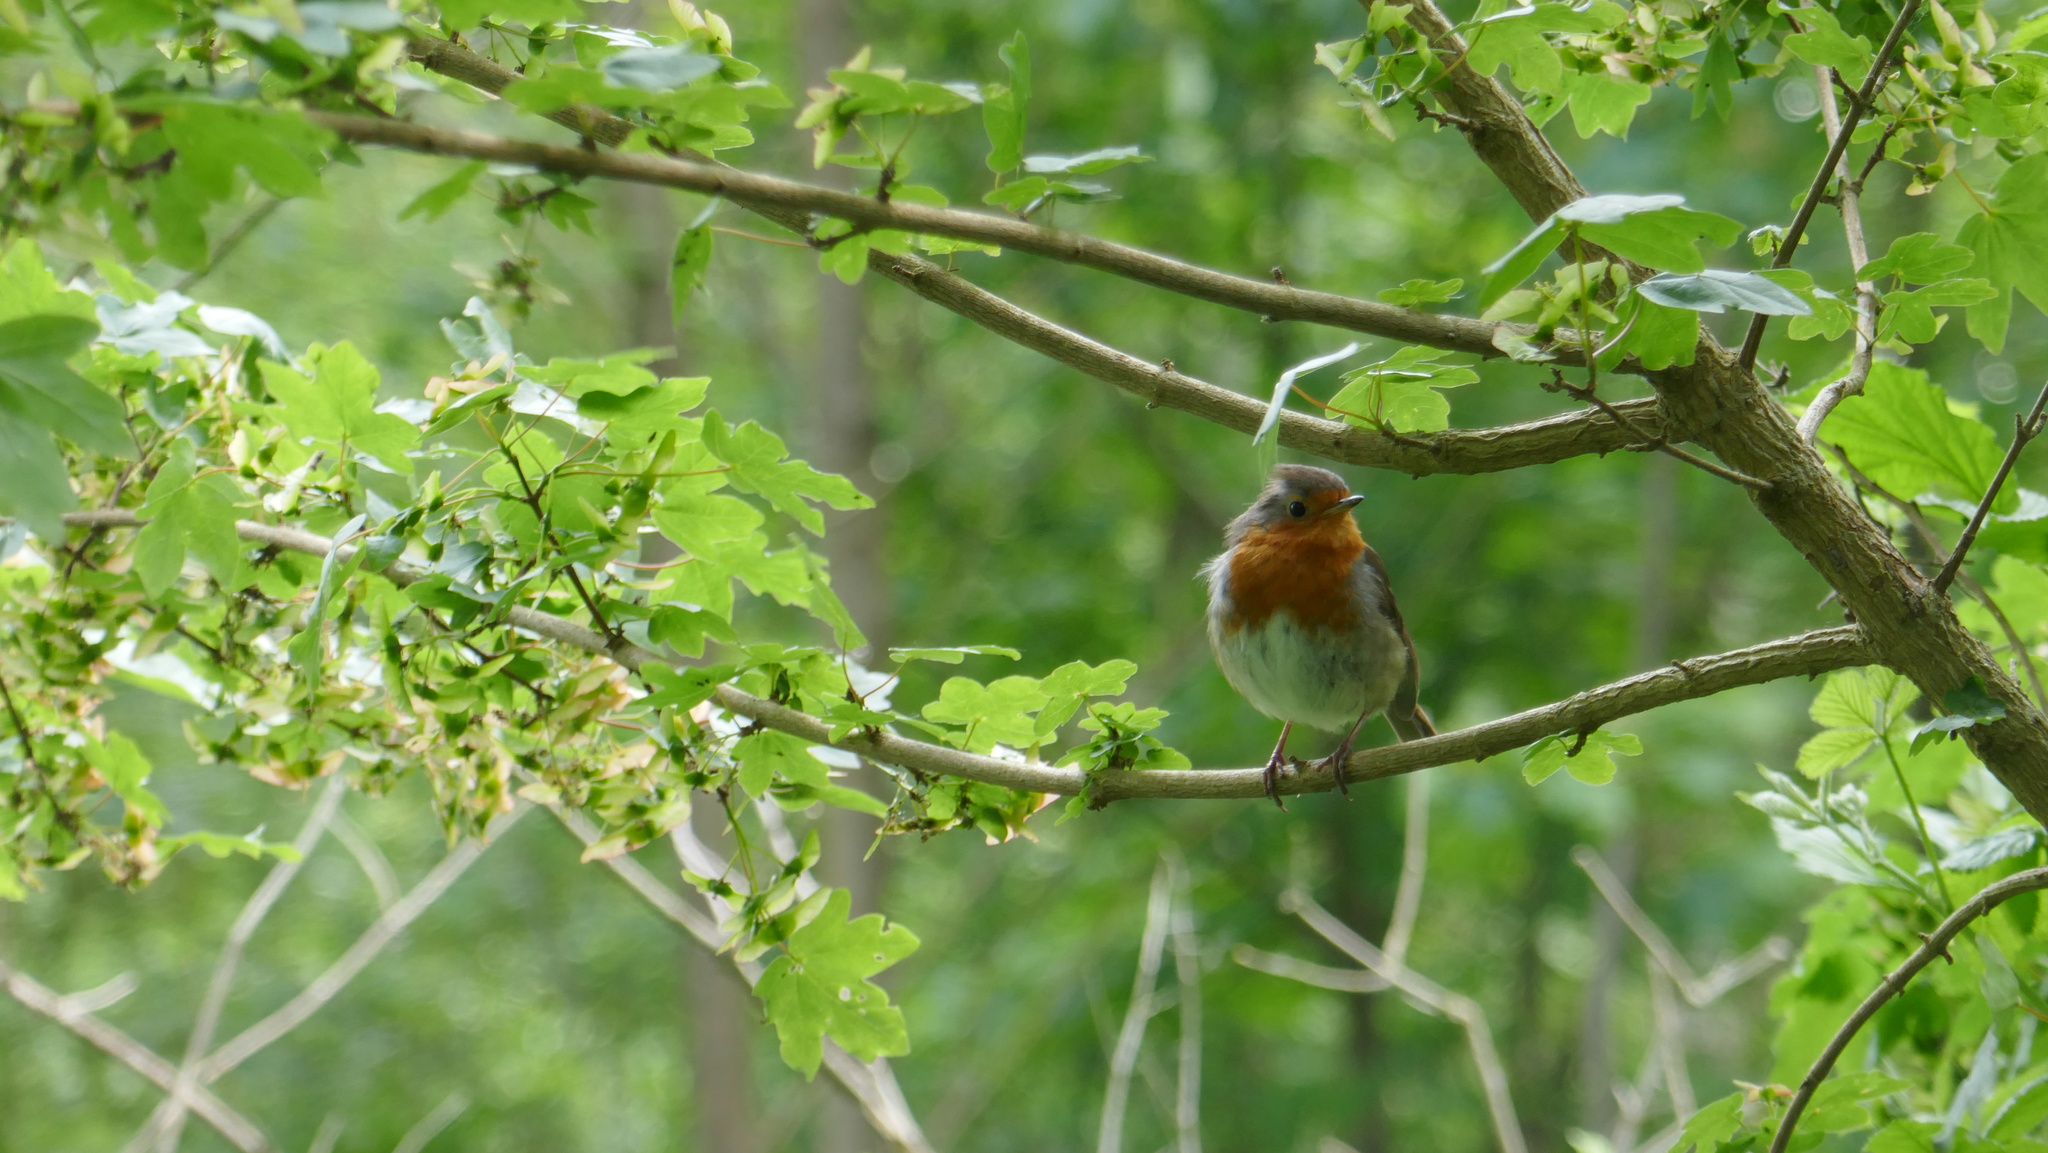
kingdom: Animalia
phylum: Chordata
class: Aves
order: Passeriformes
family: Muscicapidae
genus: Erithacus
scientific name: Erithacus rubecula
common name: European robin
